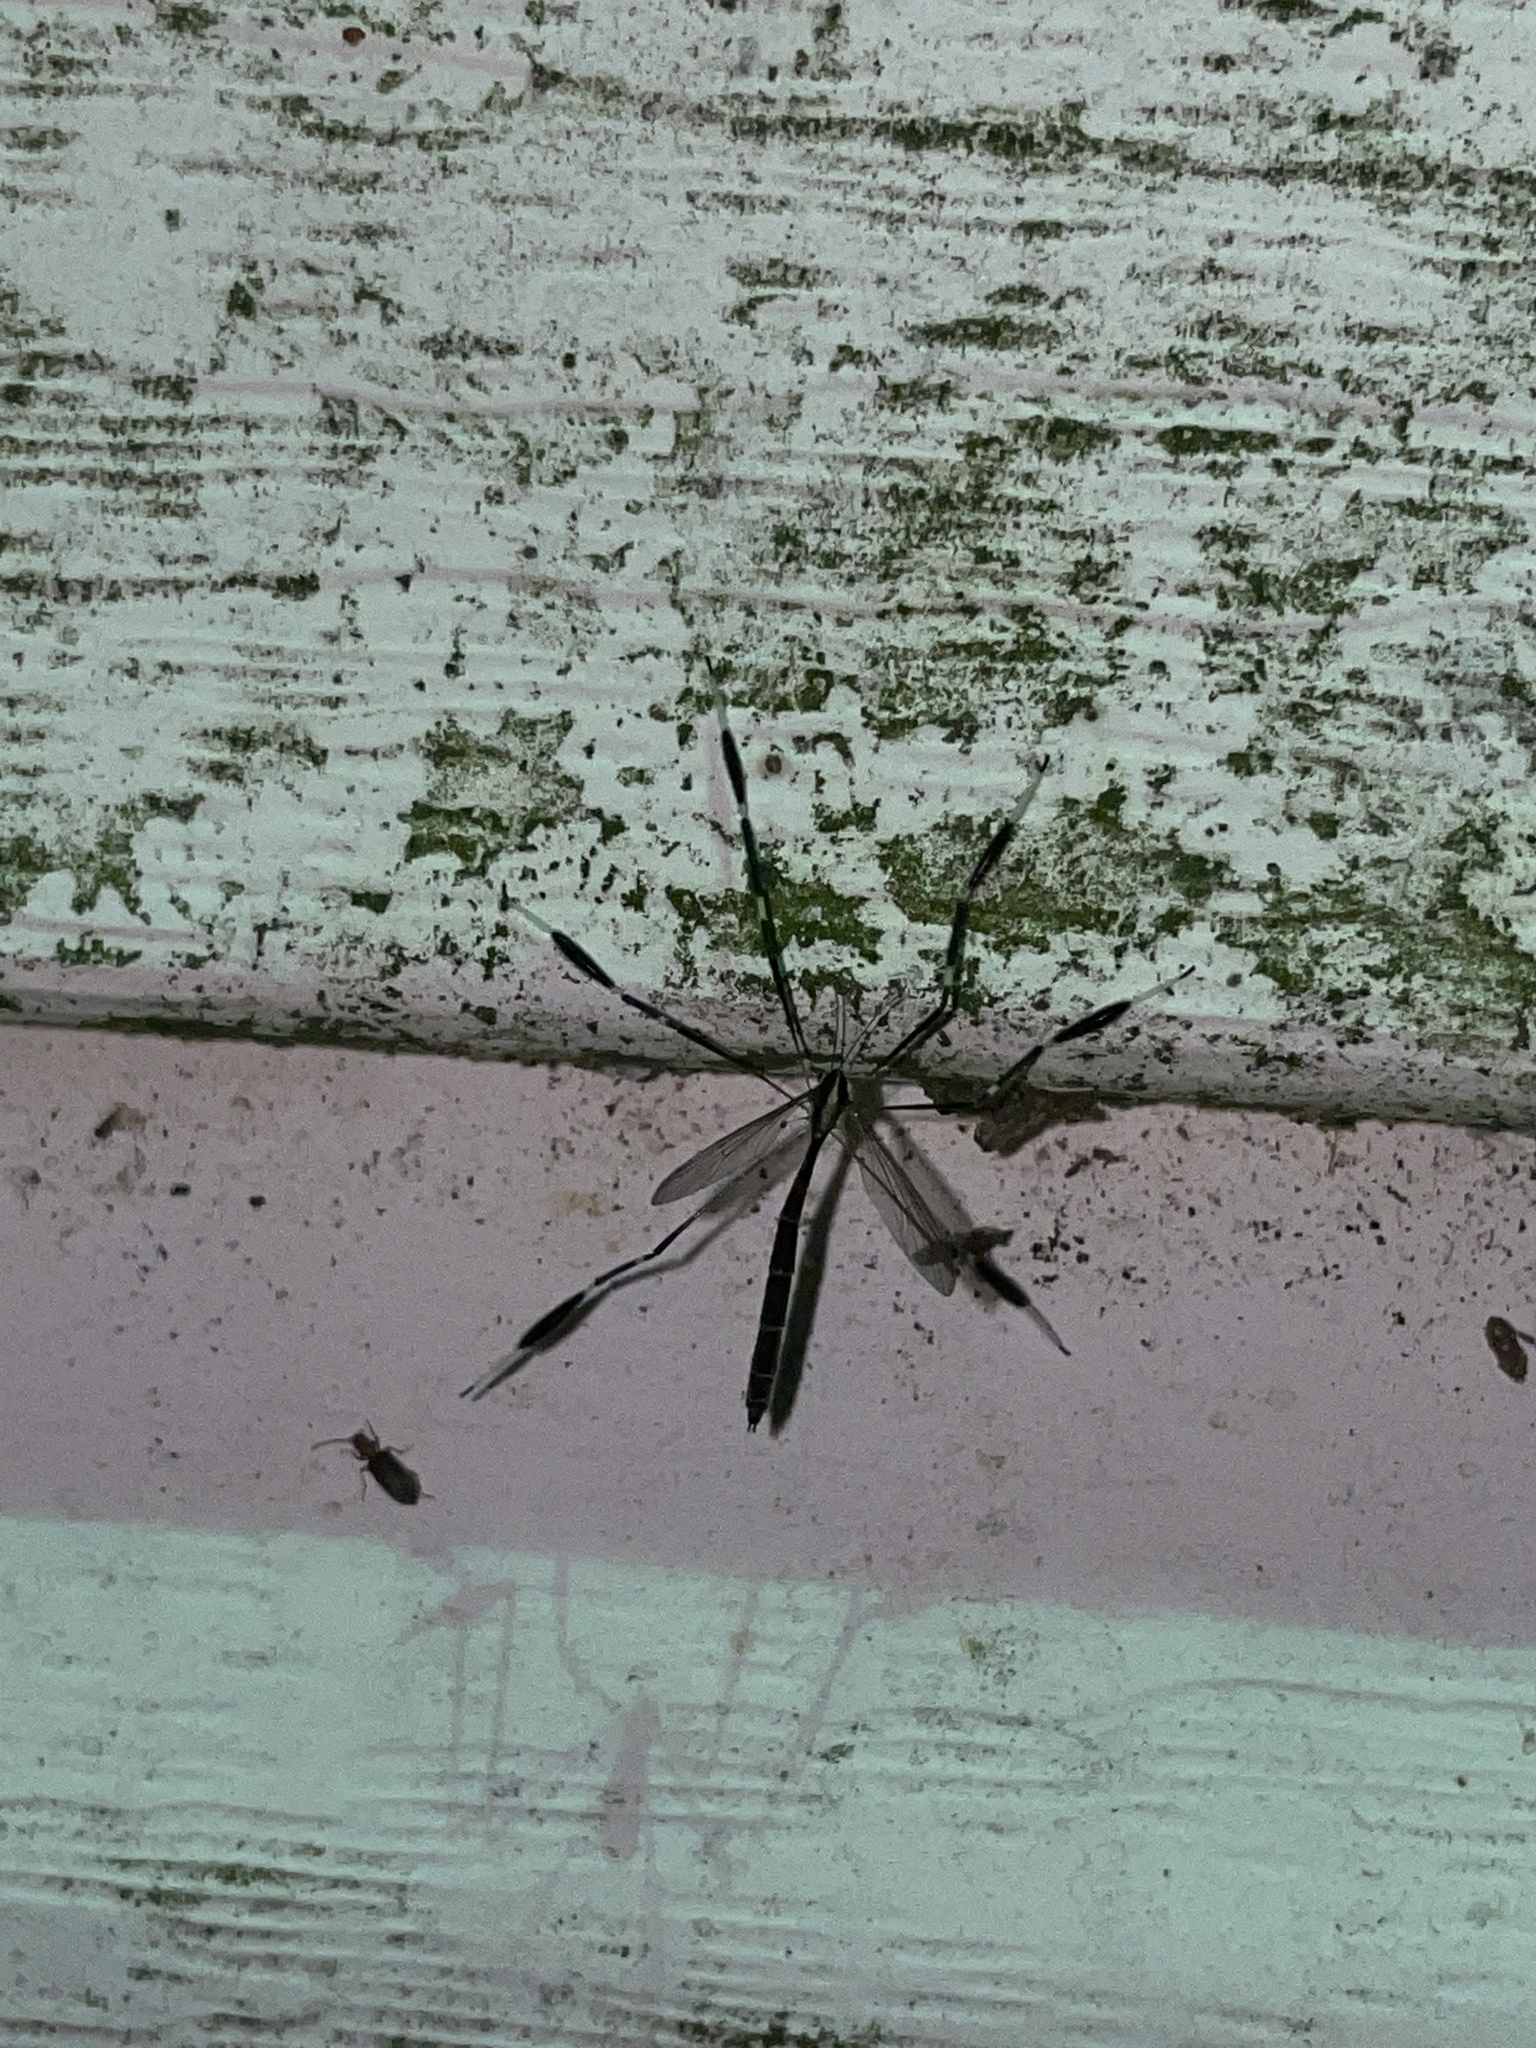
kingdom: Animalia
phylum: Arthropoda
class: Insecta
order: Diptera
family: Ptychopteridae
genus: Bittacomorpha
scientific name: Bittacomorpha clavipes
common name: Eastern phantom crane fly
